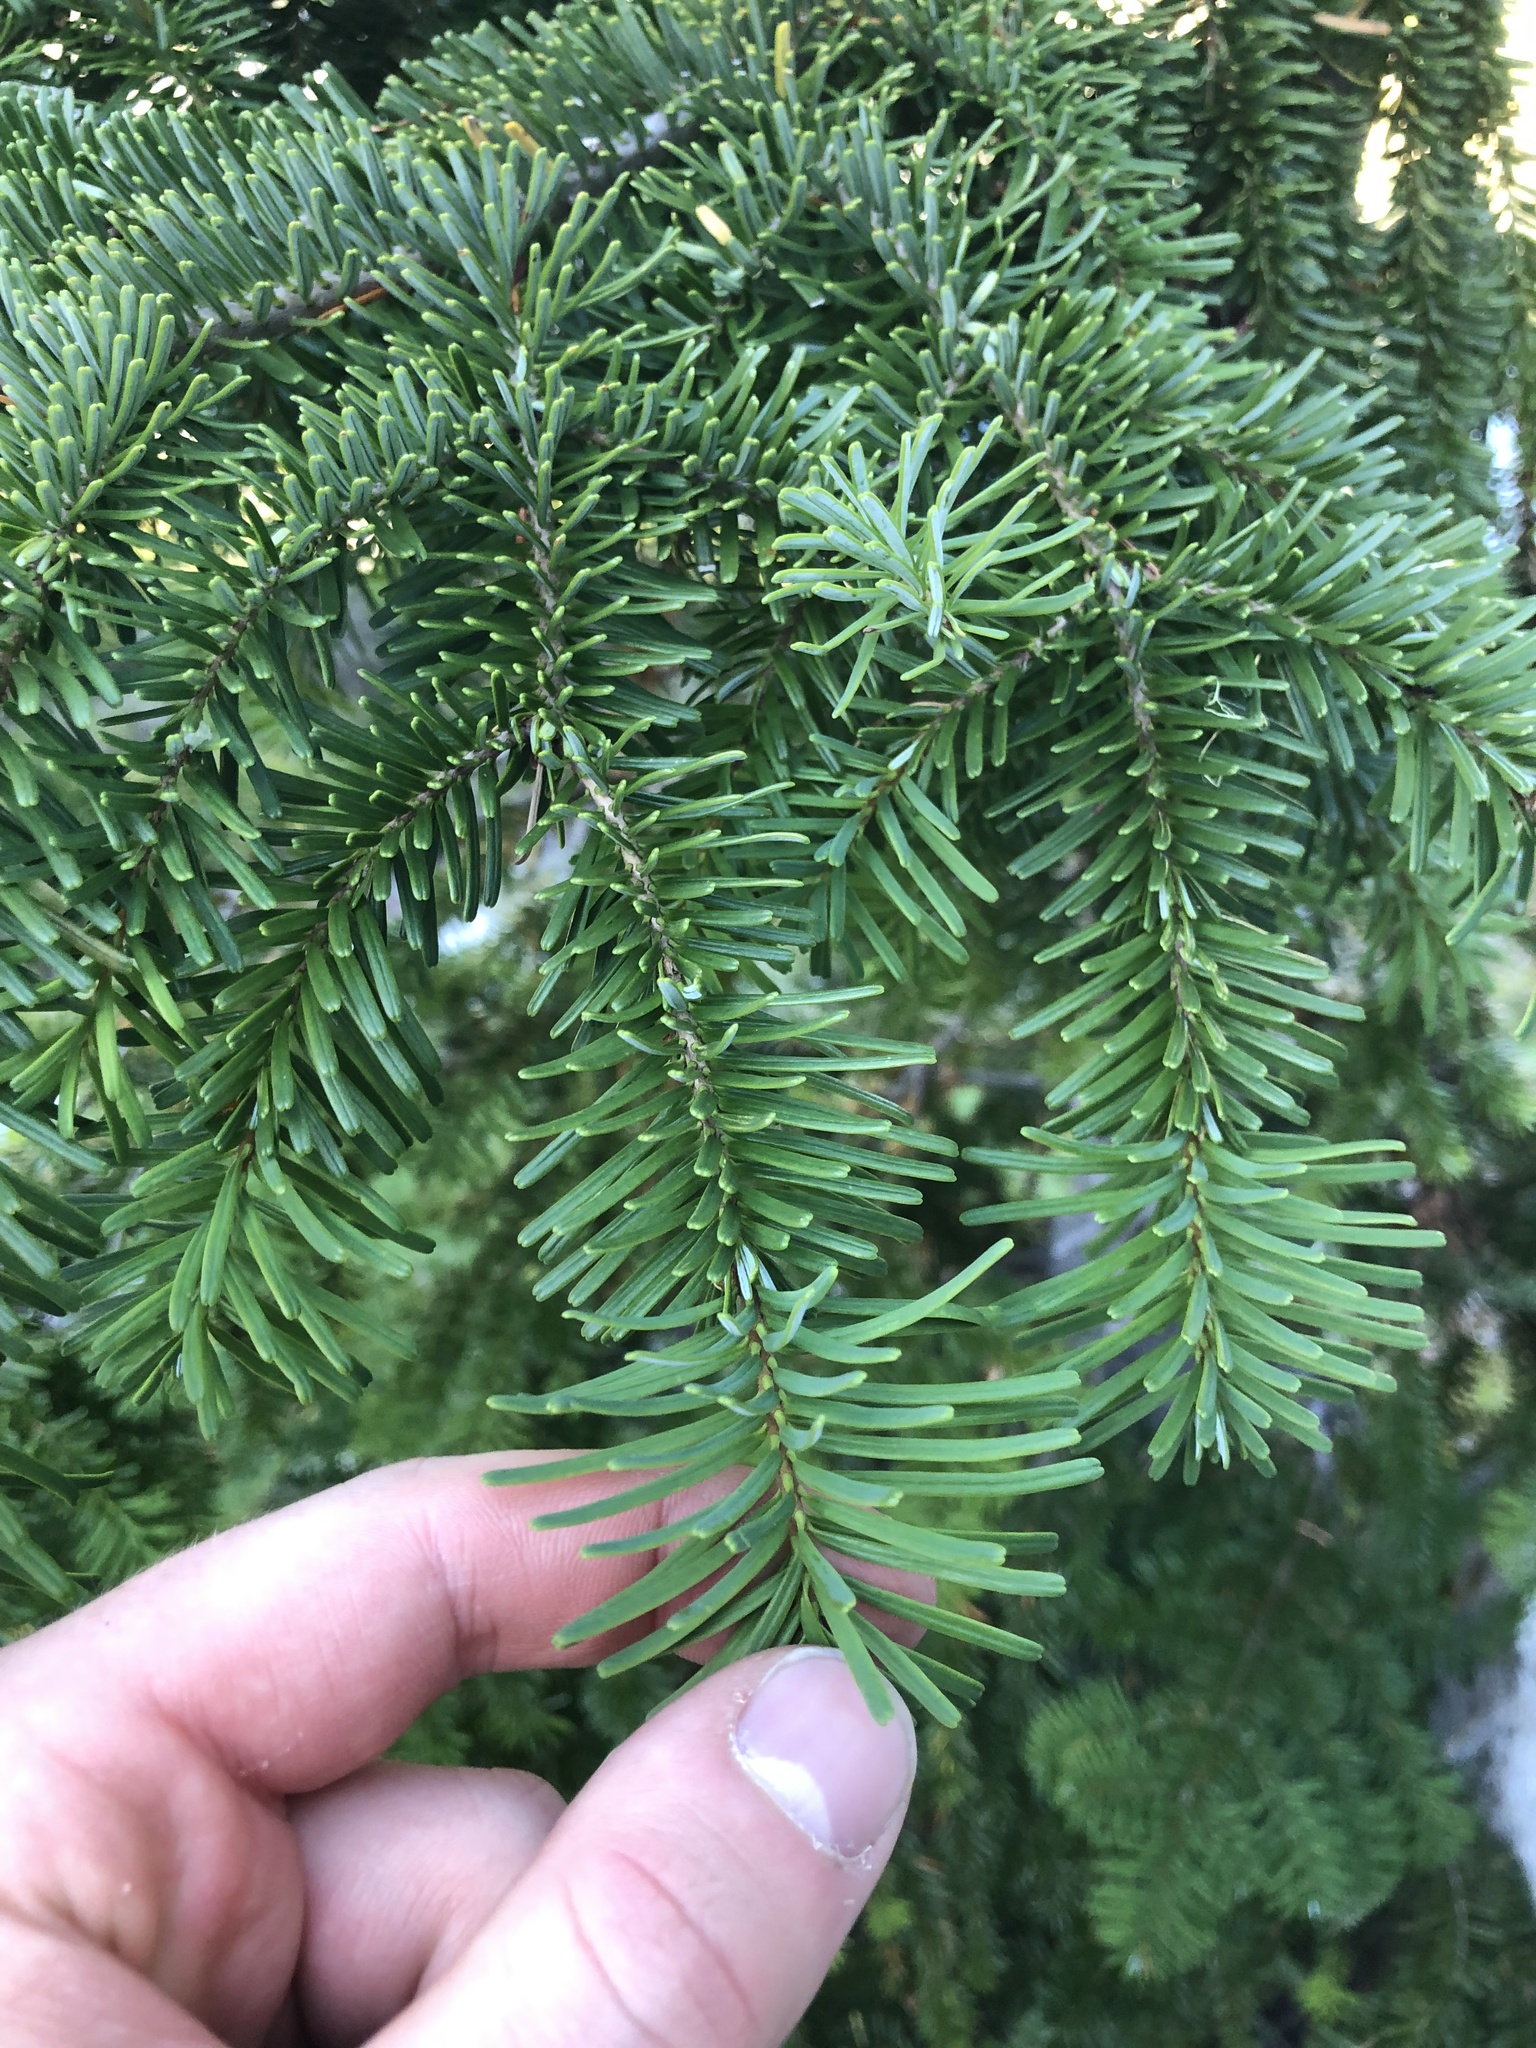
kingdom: Plantae
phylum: Tracheophyta
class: Pinopsida
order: Pinales
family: Pinaceae
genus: Abies
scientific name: Abies amabilis
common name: Pacific silver fir
